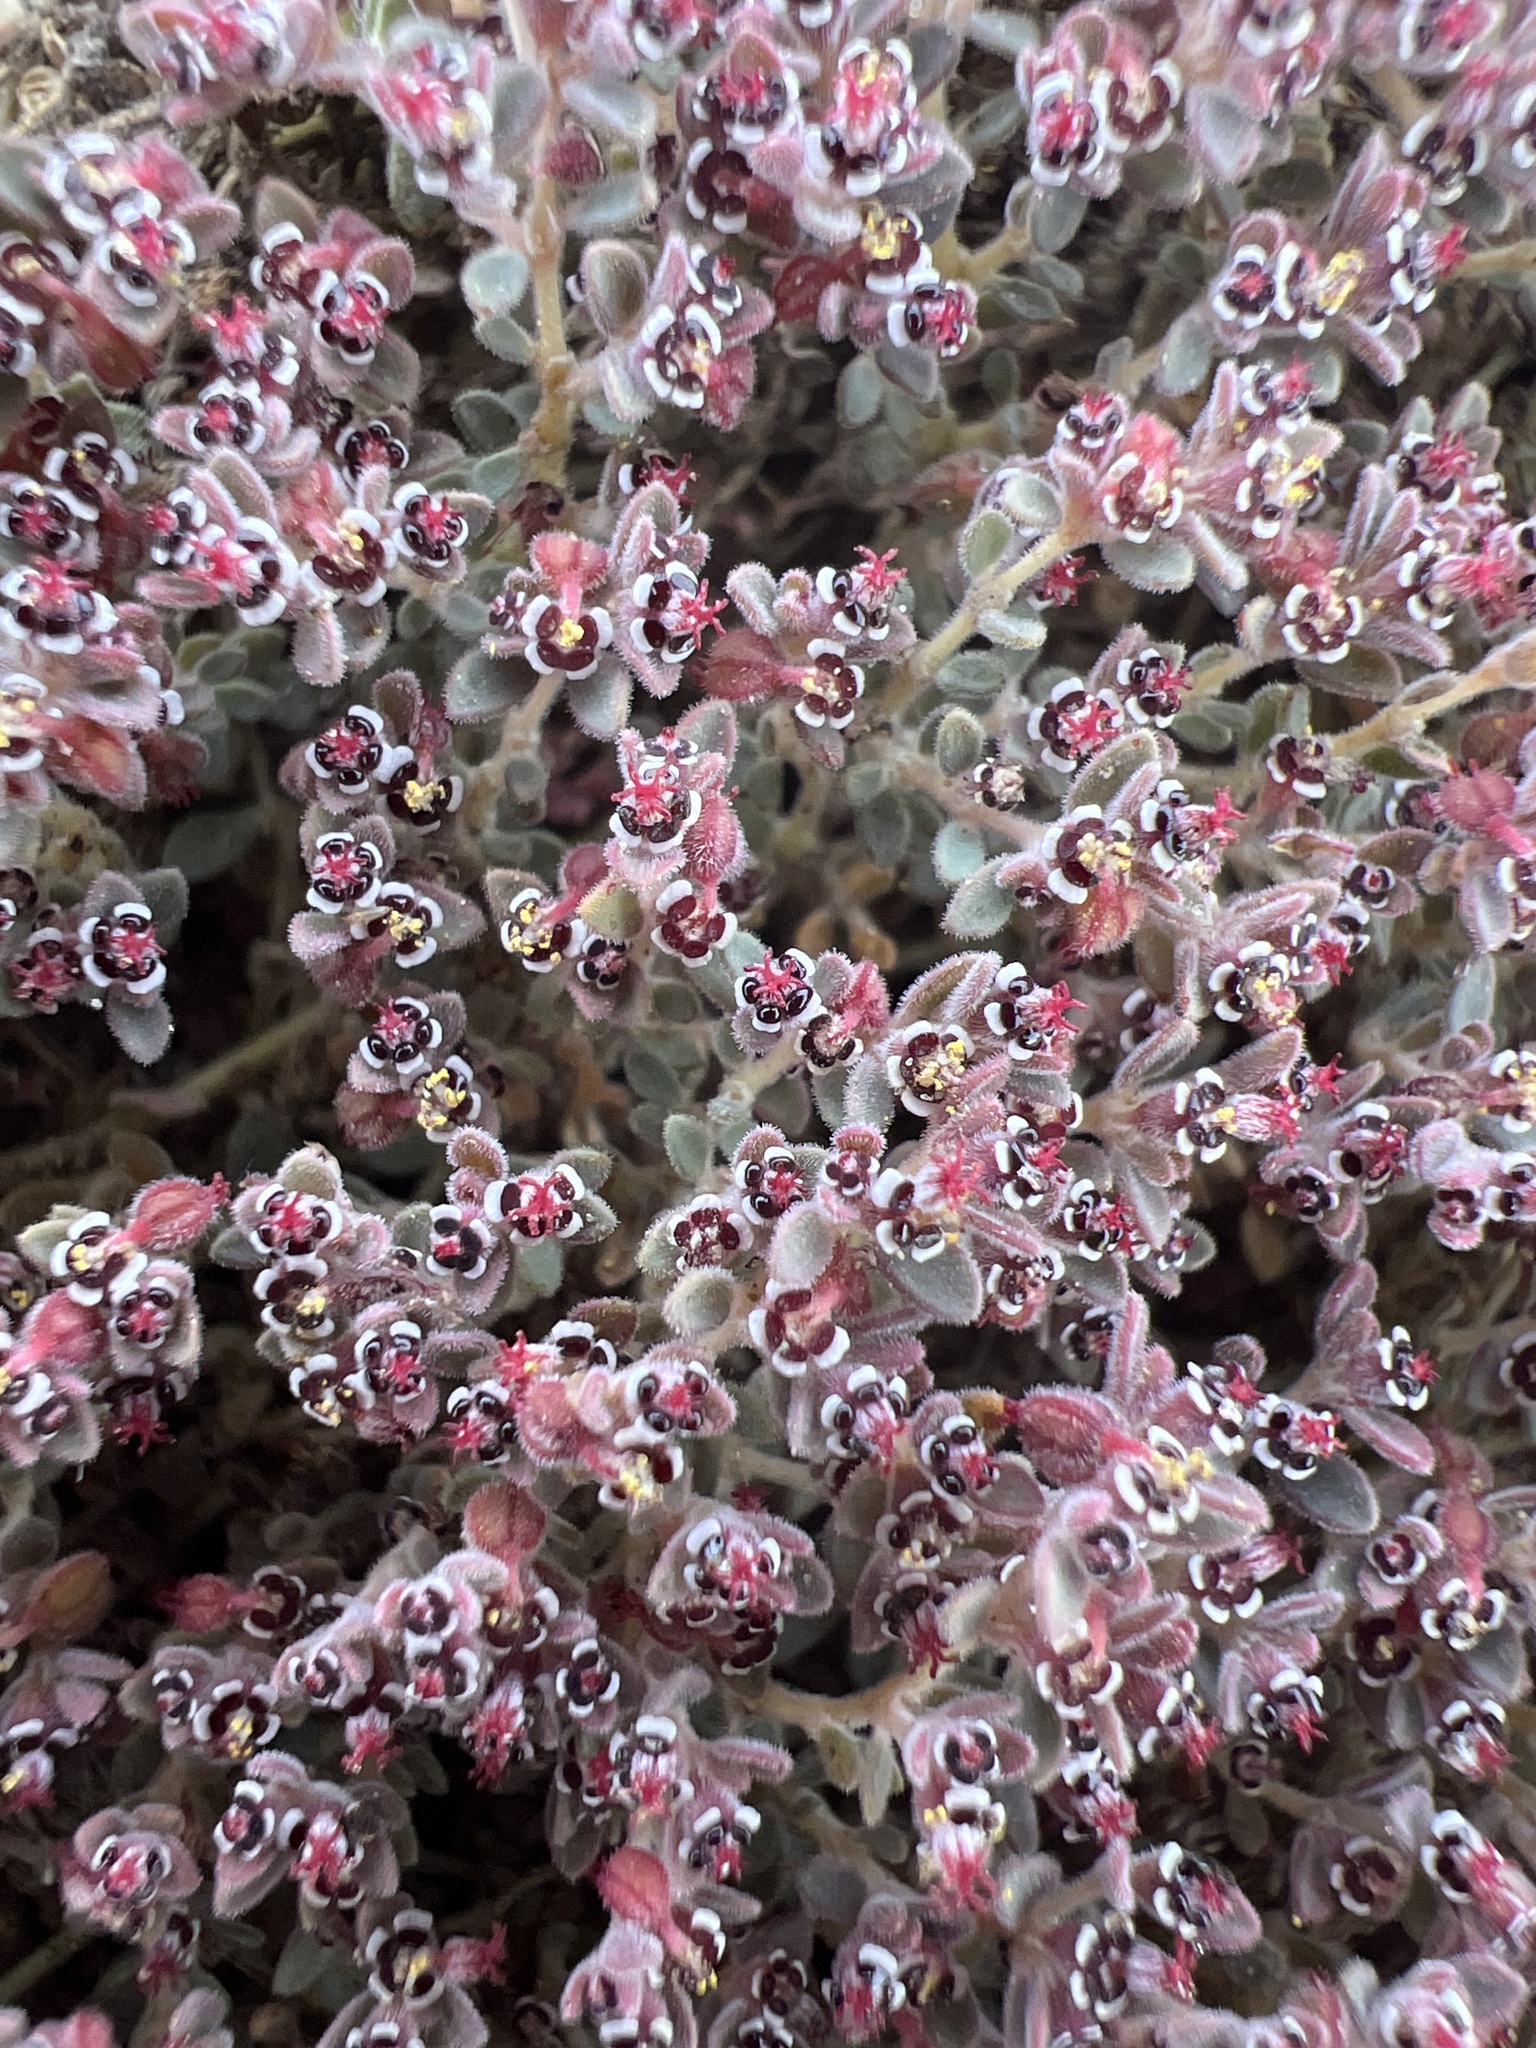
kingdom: Plantae
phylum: Tracheophyta
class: Magnoliopsida
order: Malpighiales
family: Euphorbiaceae
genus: Euphorbia
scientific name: Euphorbia polycarpa
